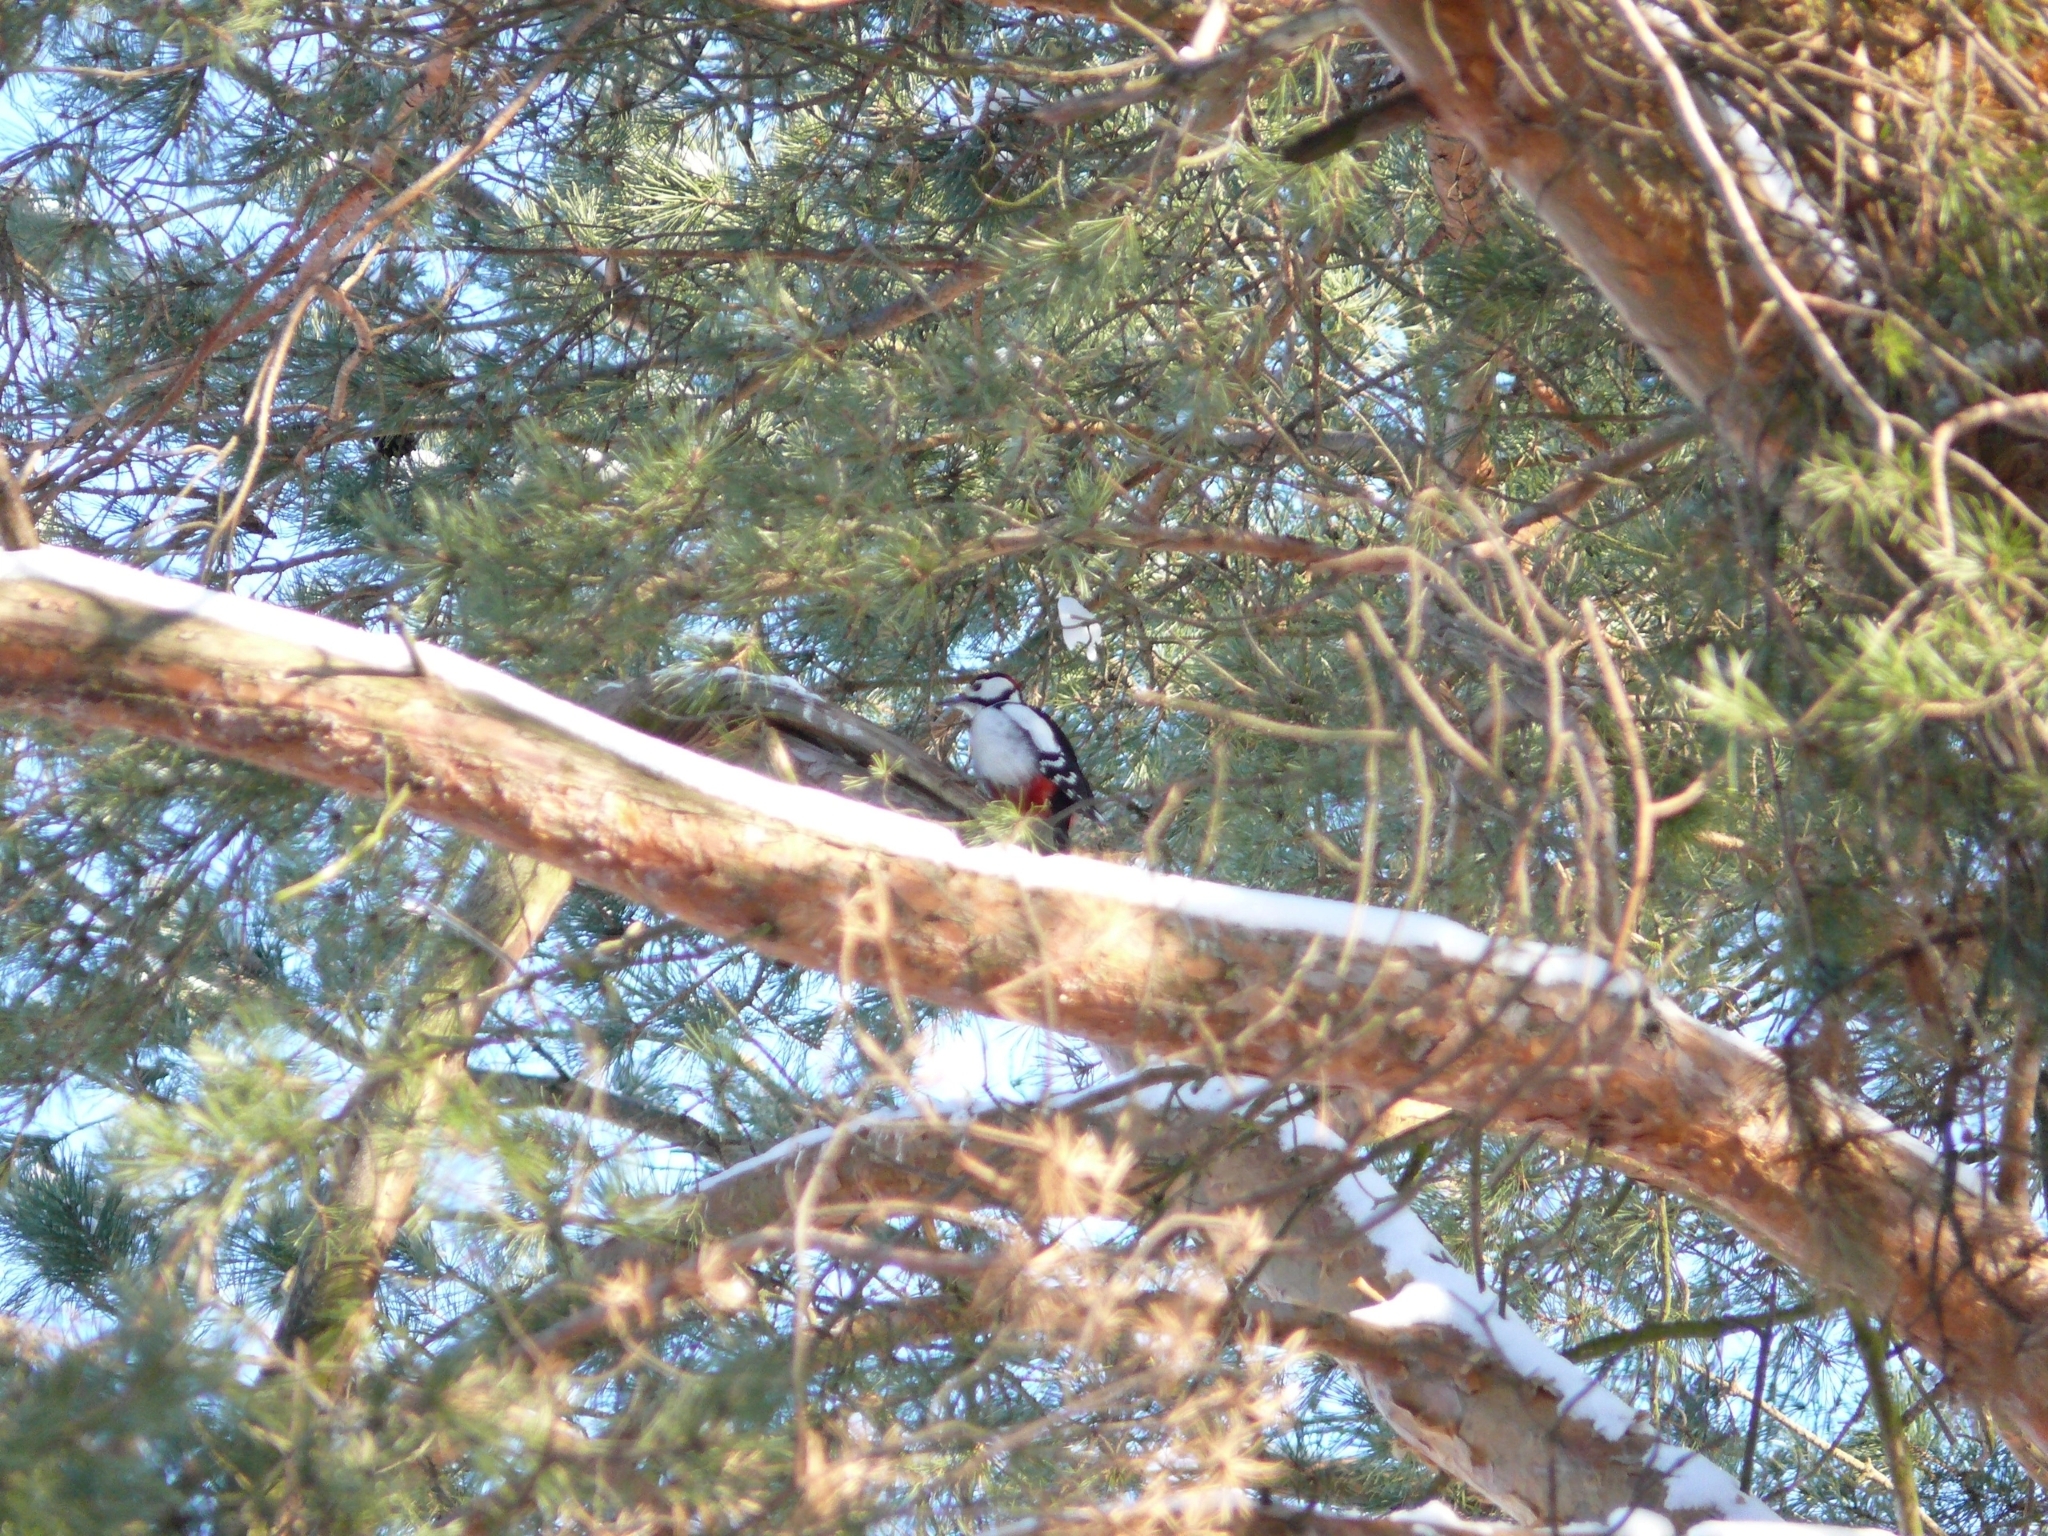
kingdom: Animalia
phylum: Chordata
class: Aves
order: Piciformes
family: Picidae
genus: Dendrocopos
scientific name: Dendrocopos major
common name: Great spotted woodpecker
